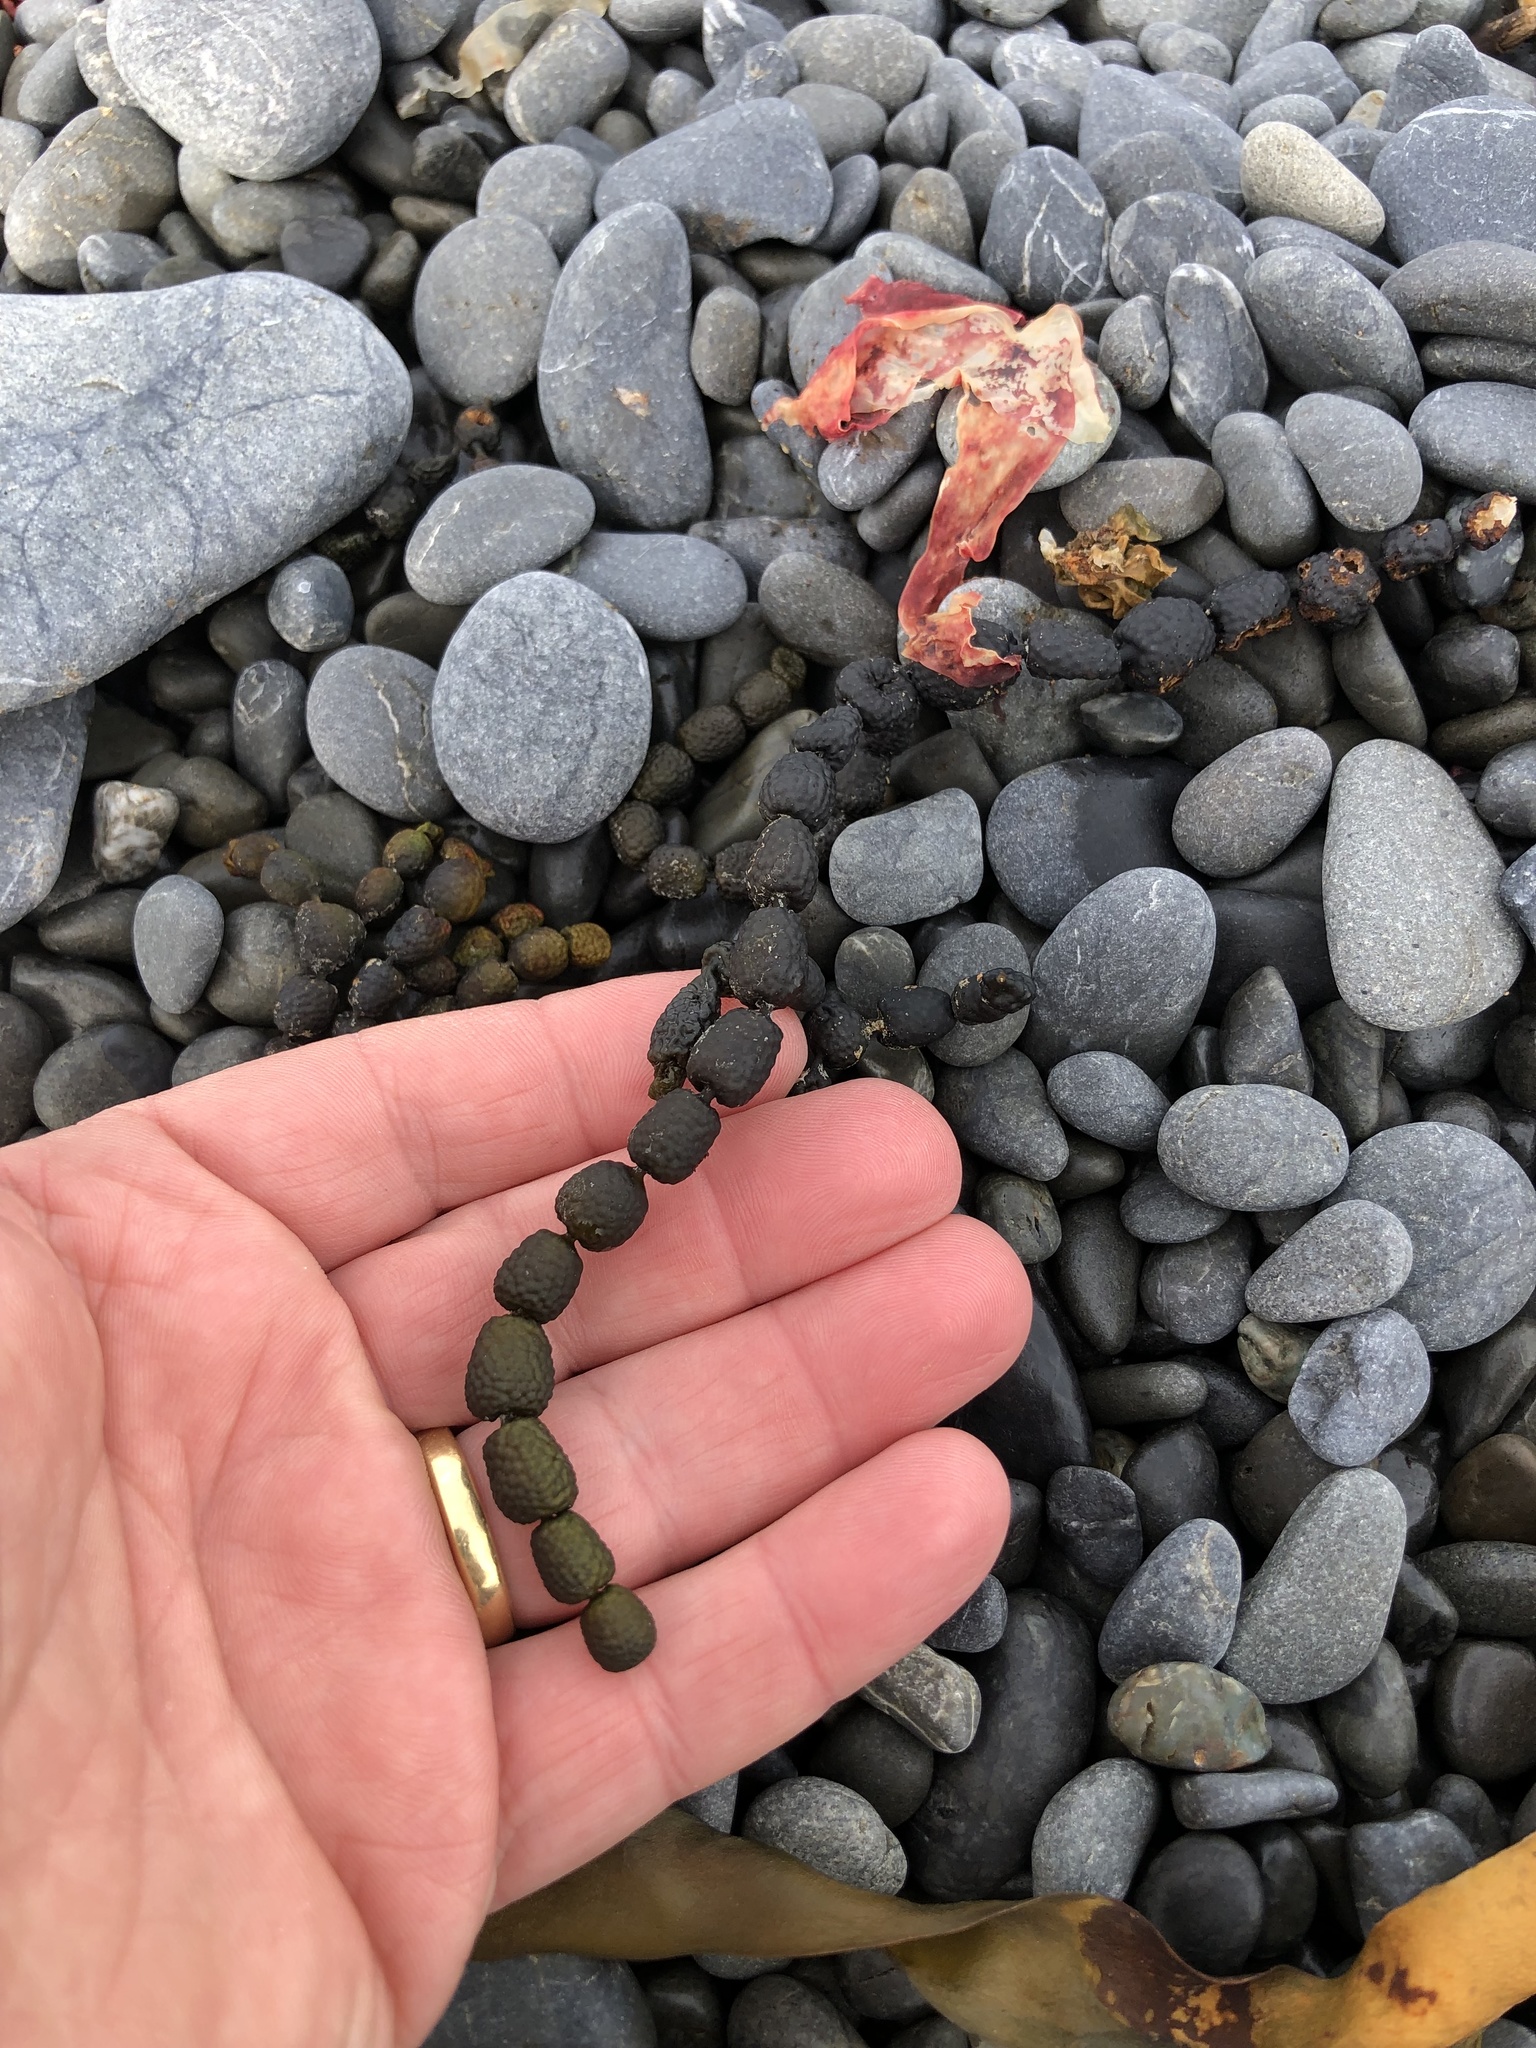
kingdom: Chromista
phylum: Ochrophyta
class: Phaeophyceae
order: Fucales
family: Hormosiraceae
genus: Hormosira
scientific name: Hormosira banksii
